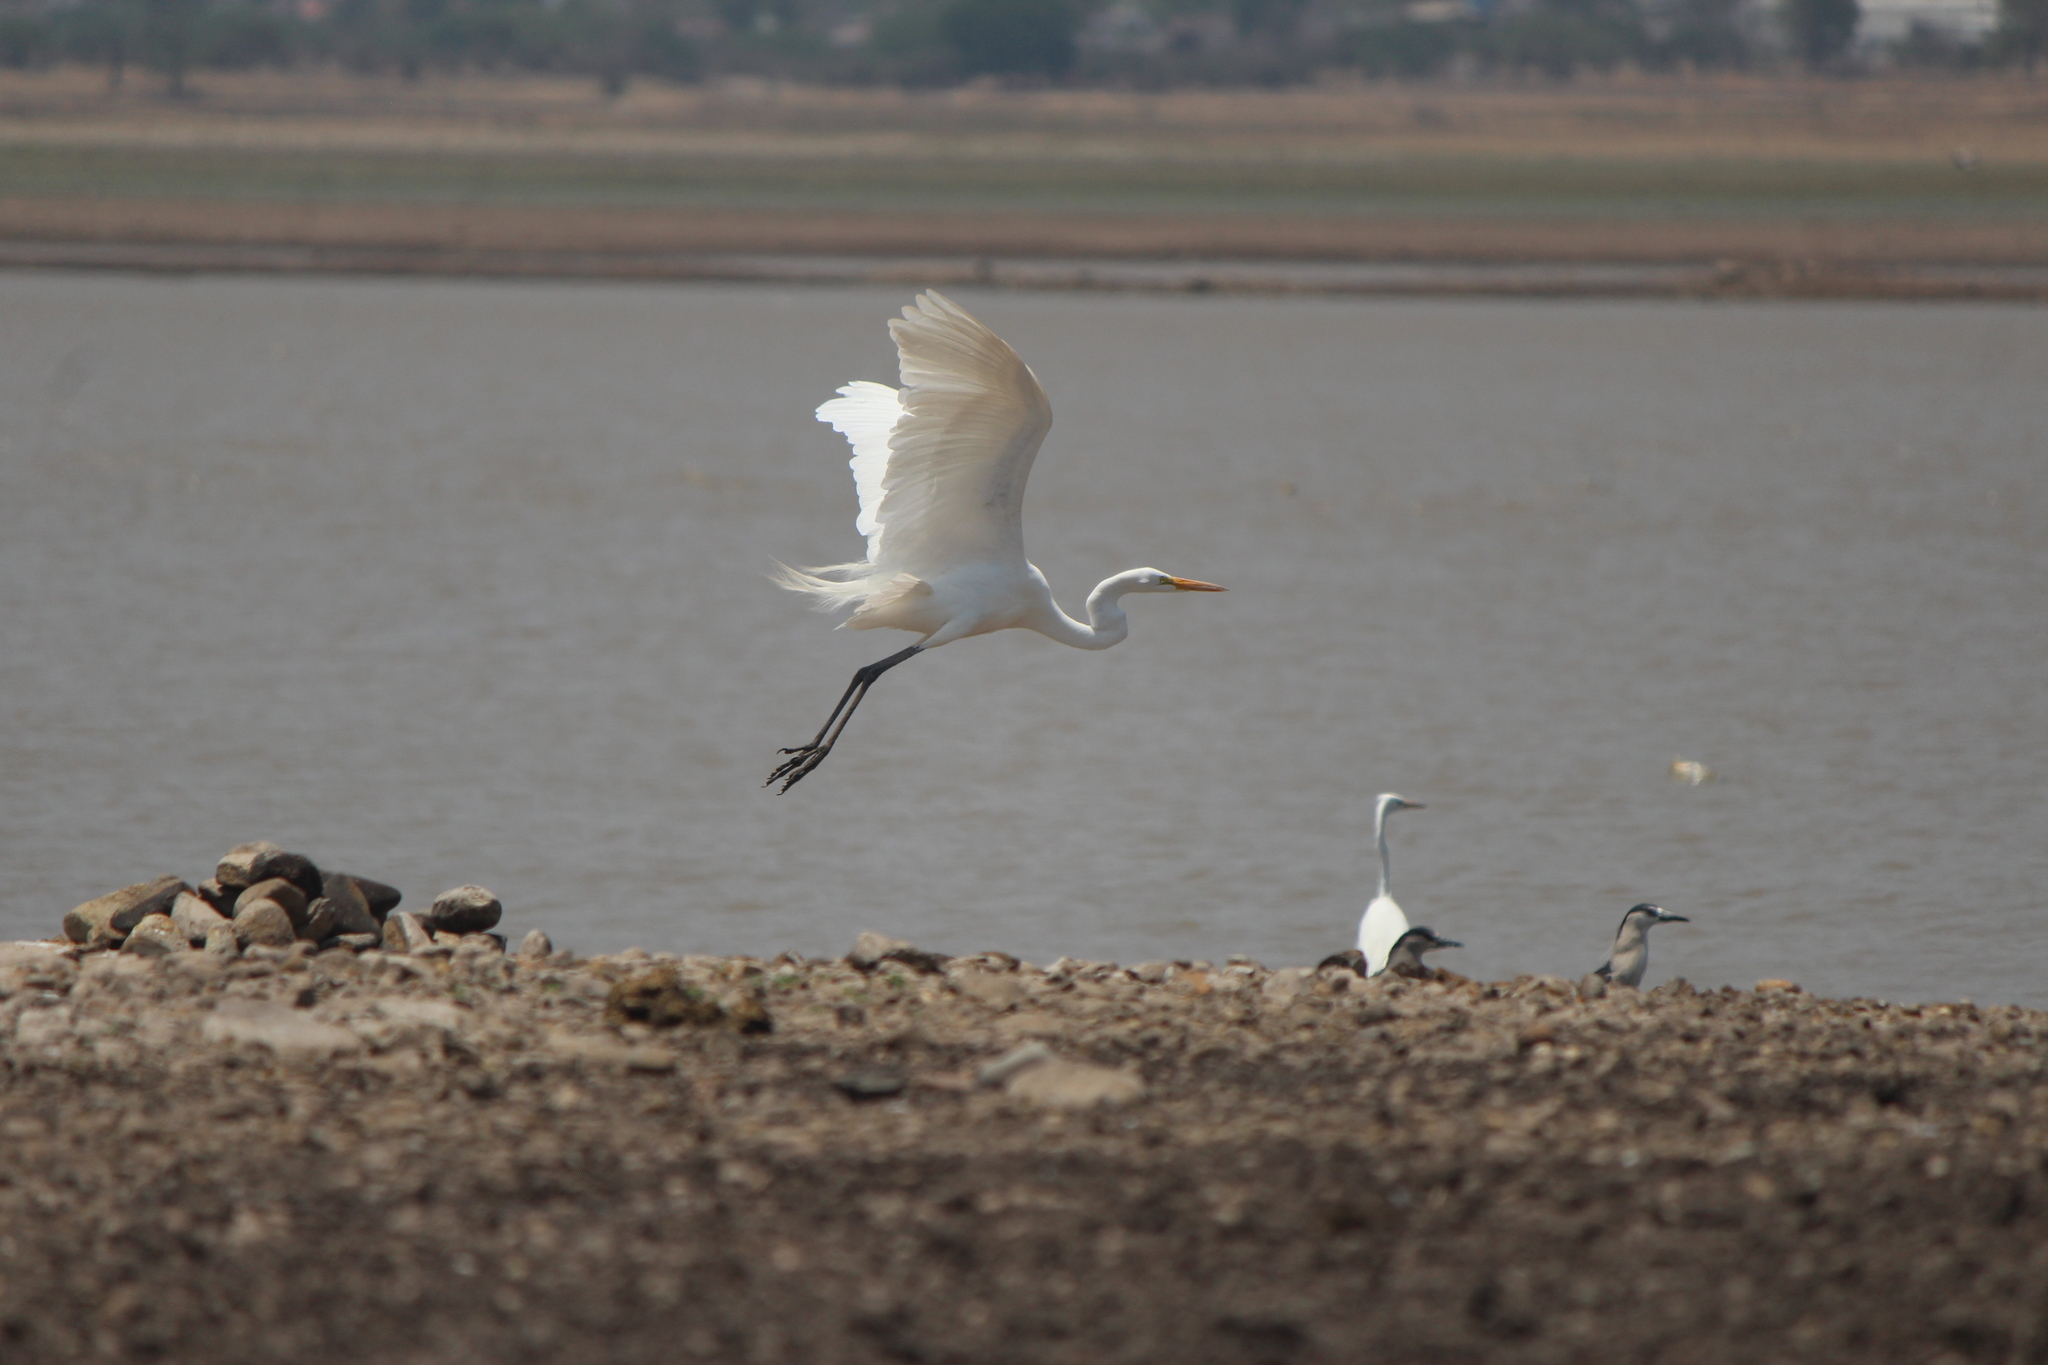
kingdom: Animalia
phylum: Chordata
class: Aves
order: Pelecaniformes
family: Ardeidae
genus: Ardea
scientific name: Ardea alba
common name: Great egret
